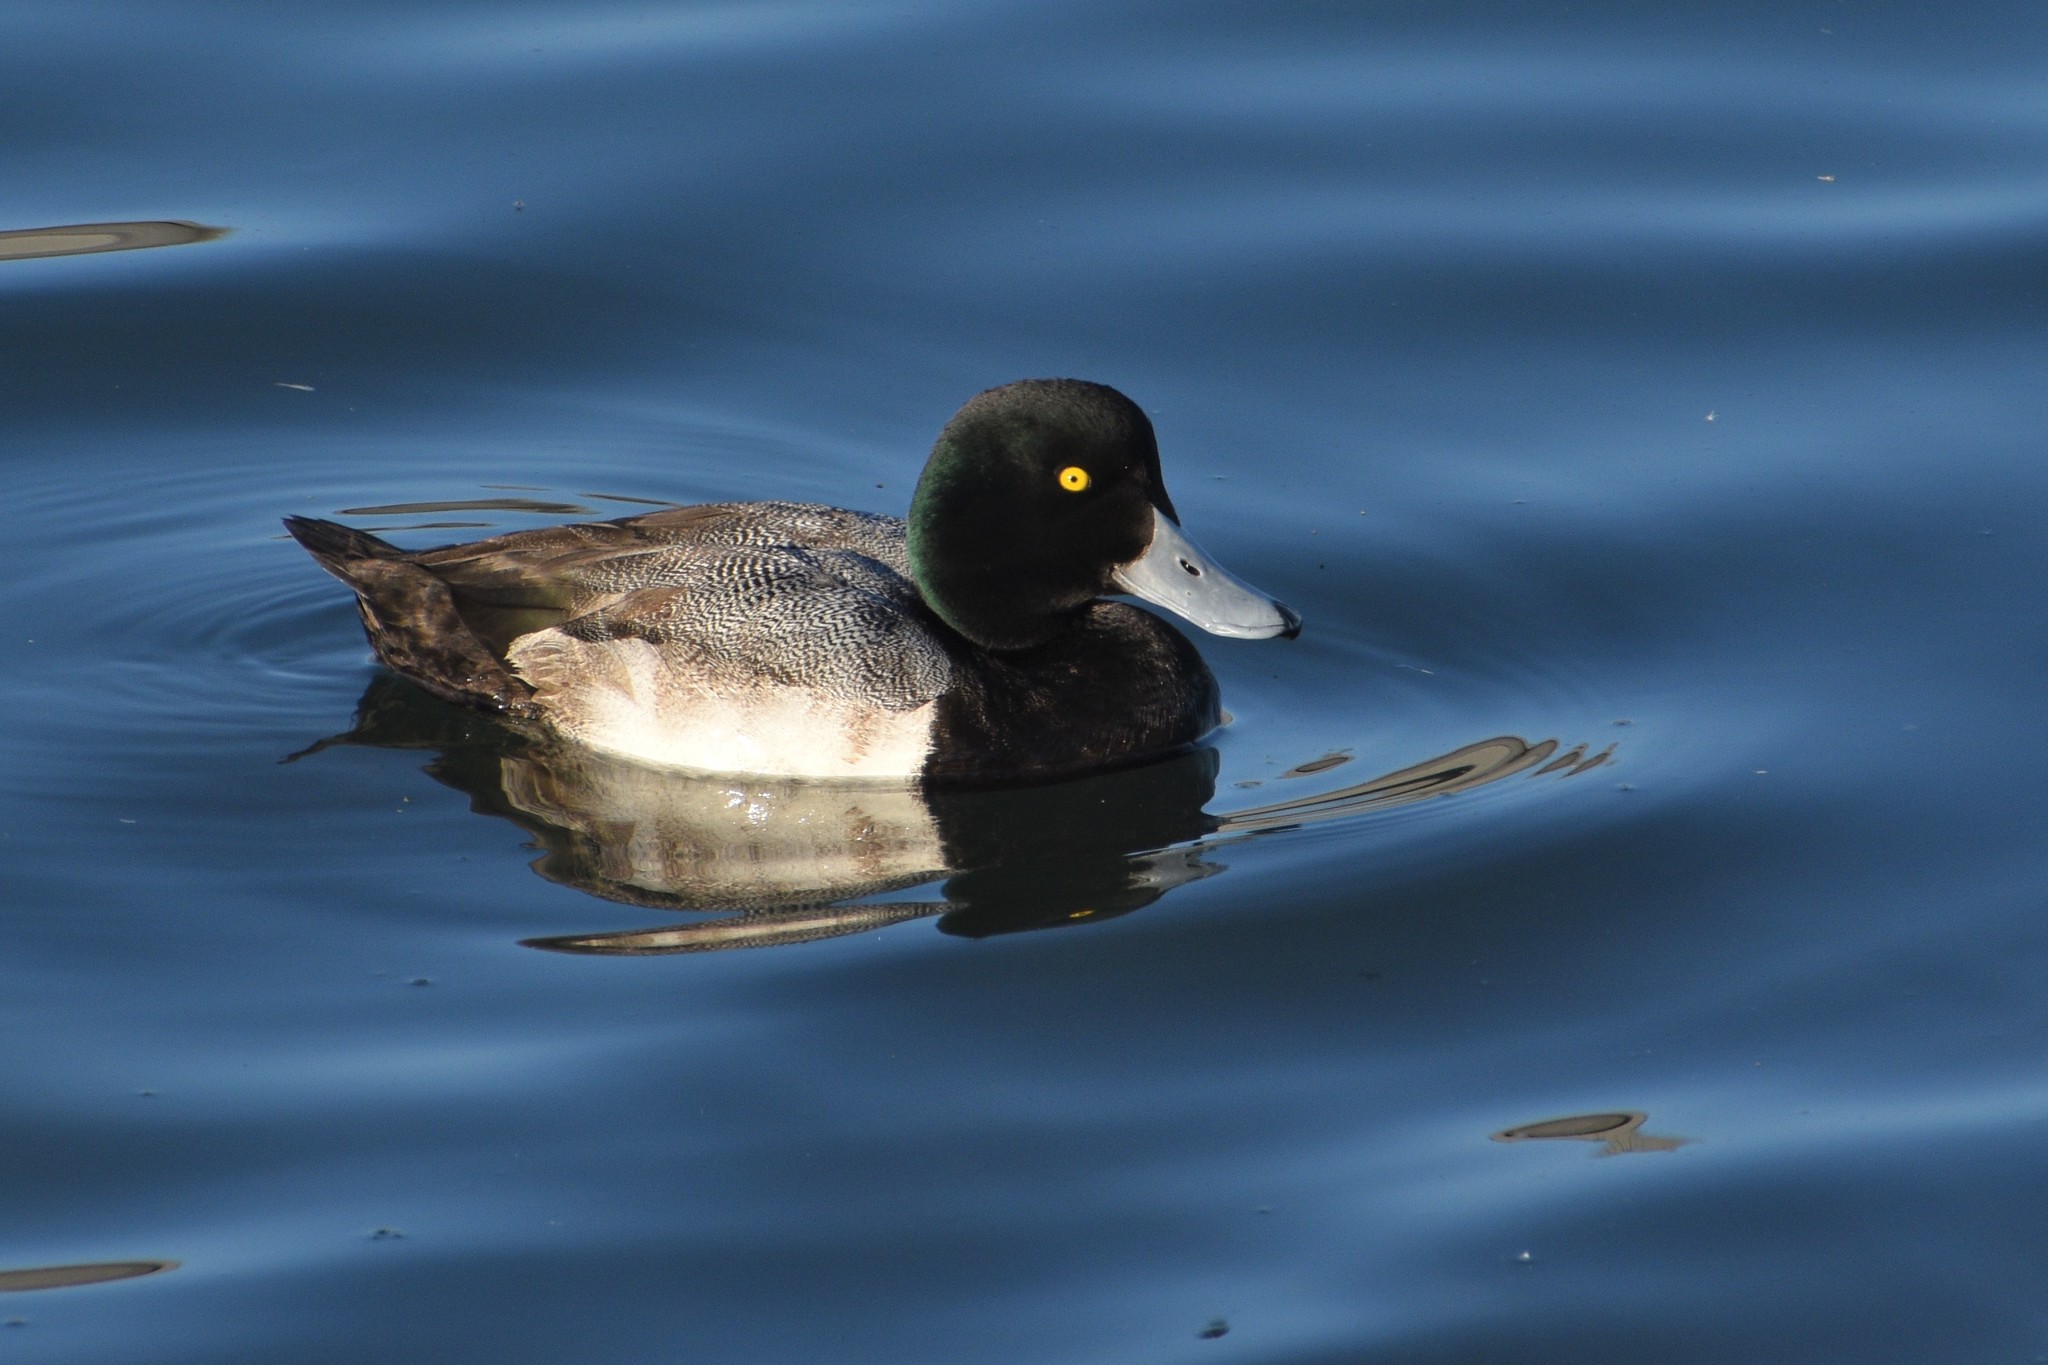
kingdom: Animalia
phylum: Chordata
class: Aves
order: Anseriformes
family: Anatidae
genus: Aythya
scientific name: Aythya marila
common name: Greater scaup
